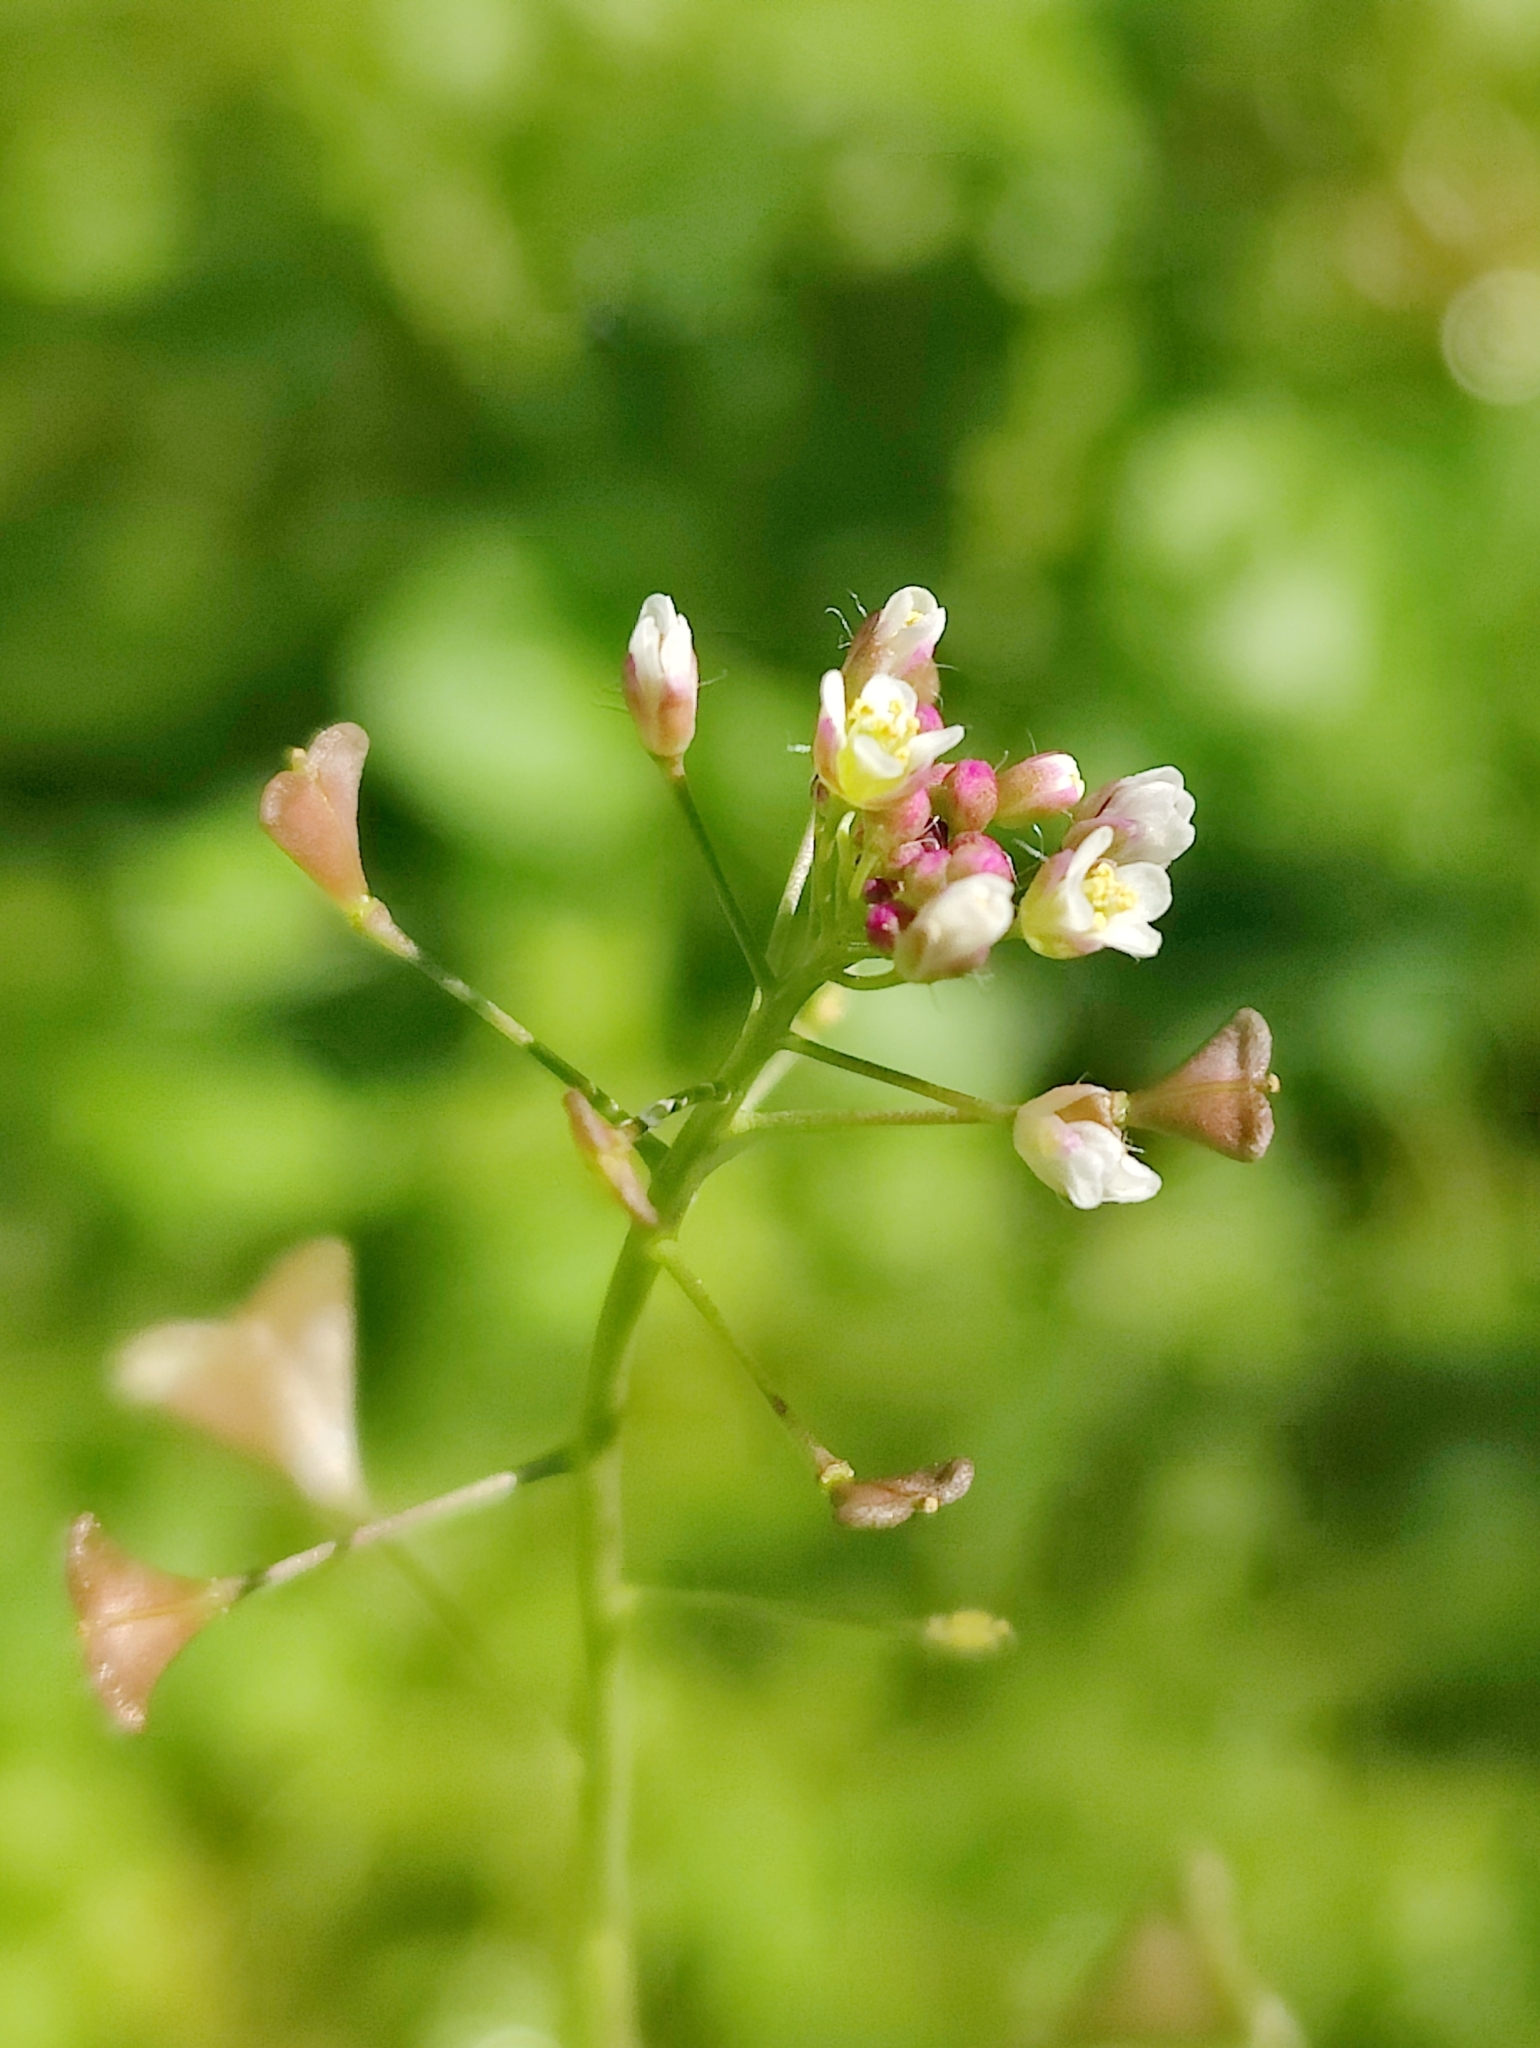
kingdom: Plantae
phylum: Tracheophyta
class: Magnoliopsida
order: Brassicales
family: Brassicaceae
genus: Capsella
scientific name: Capsella bursa-pastoris
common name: Shepherd's purse
